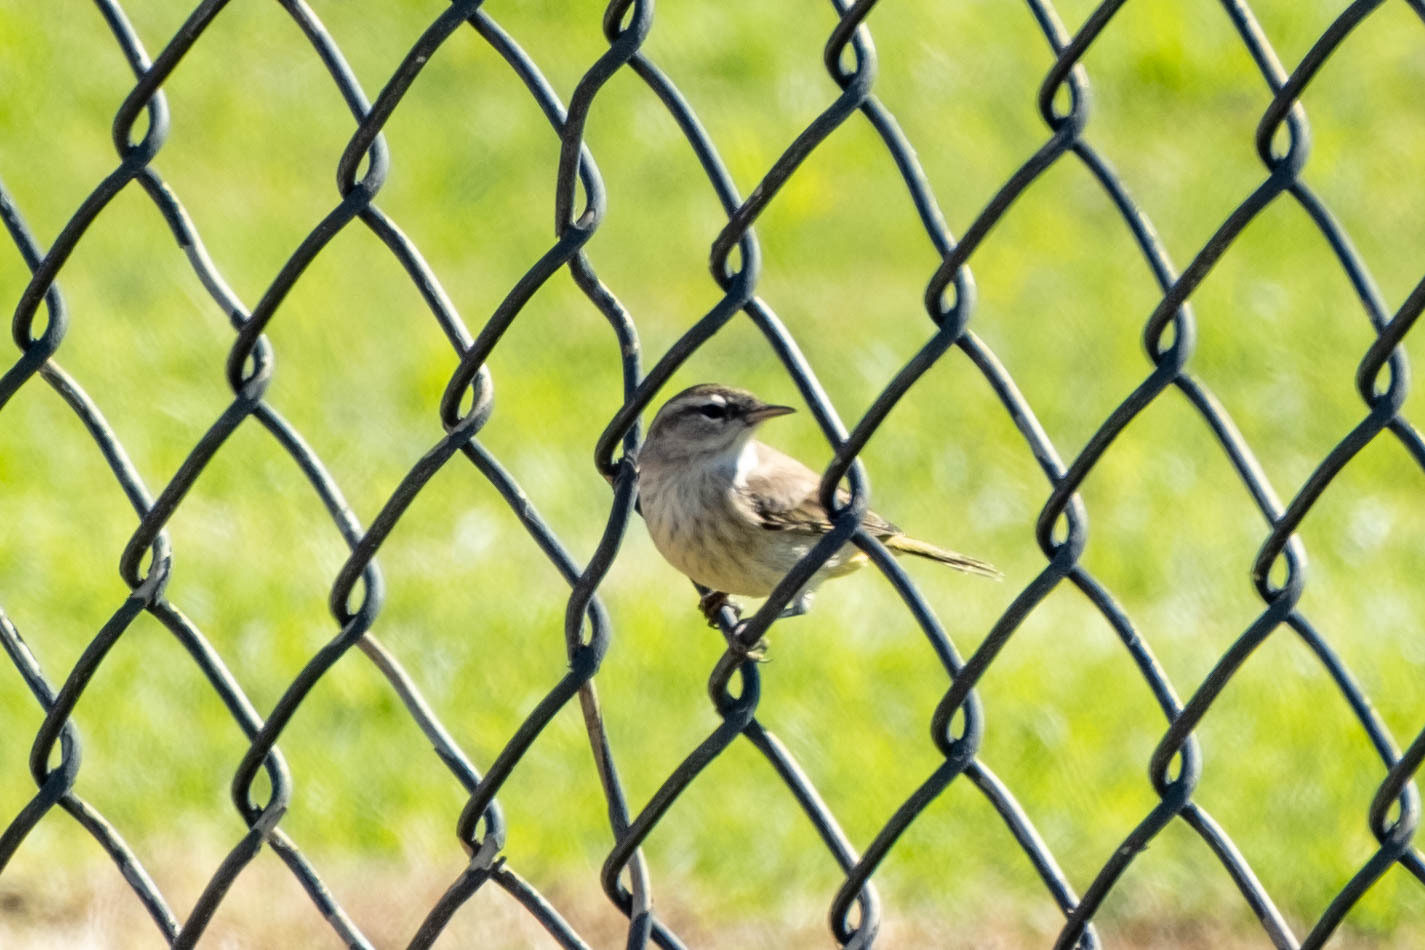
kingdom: Animalia
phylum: Chordata
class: Aves
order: Passeriformes
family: Parulidae
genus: Setophaga
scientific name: Setophaga palmarum
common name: Palm warbler
